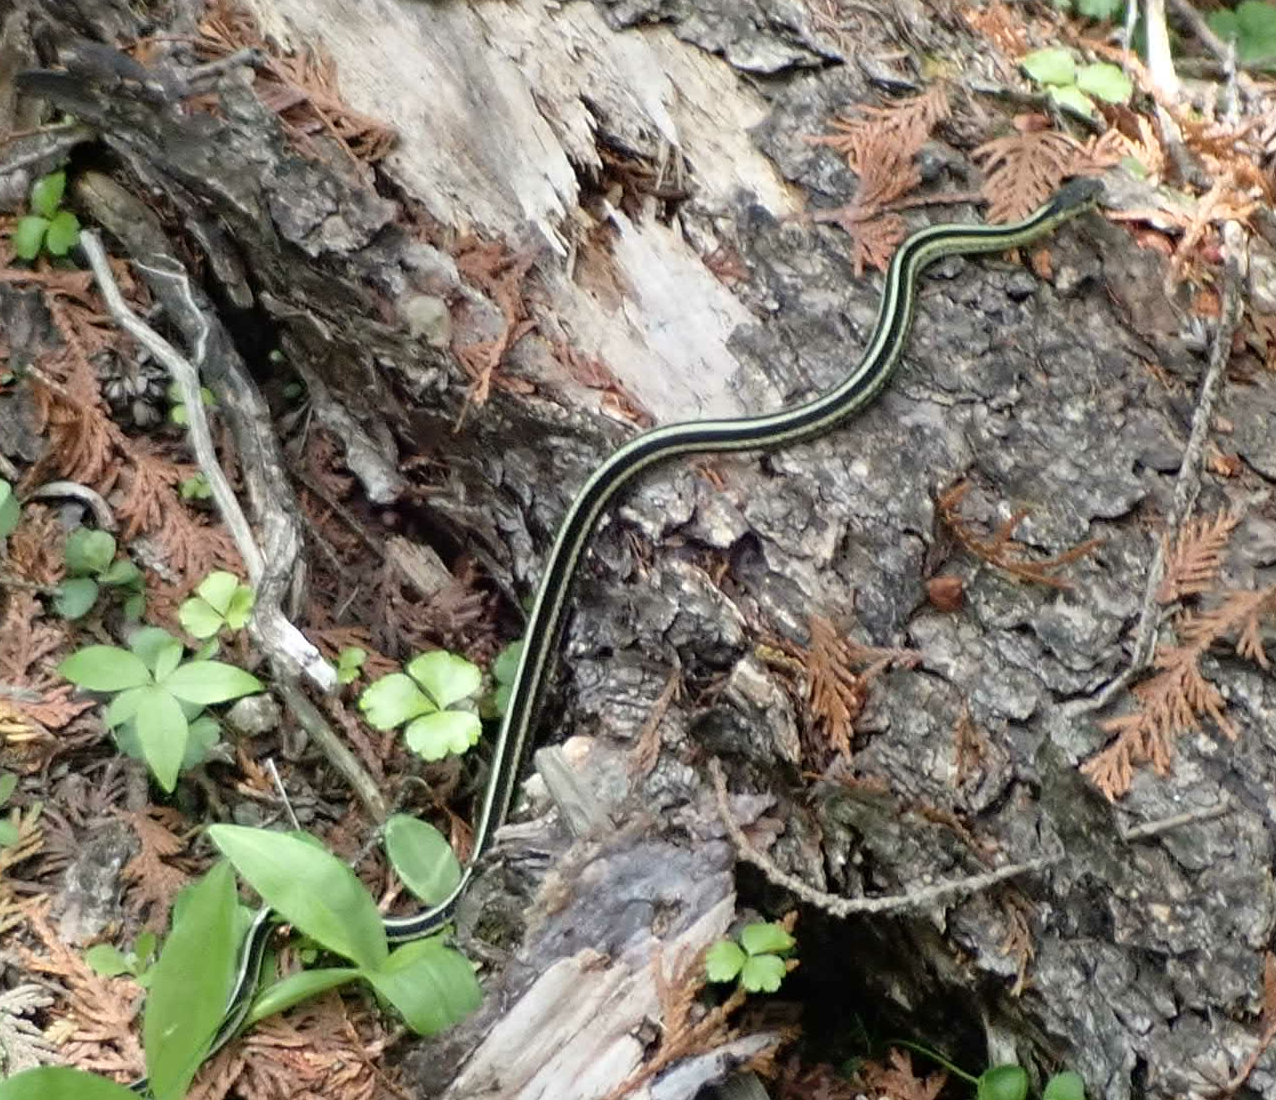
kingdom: Animalia
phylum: Chordata
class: Squamata
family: Colubridae
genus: Thamnophis
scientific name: Thamnophis sirtalis
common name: Common garter snake
